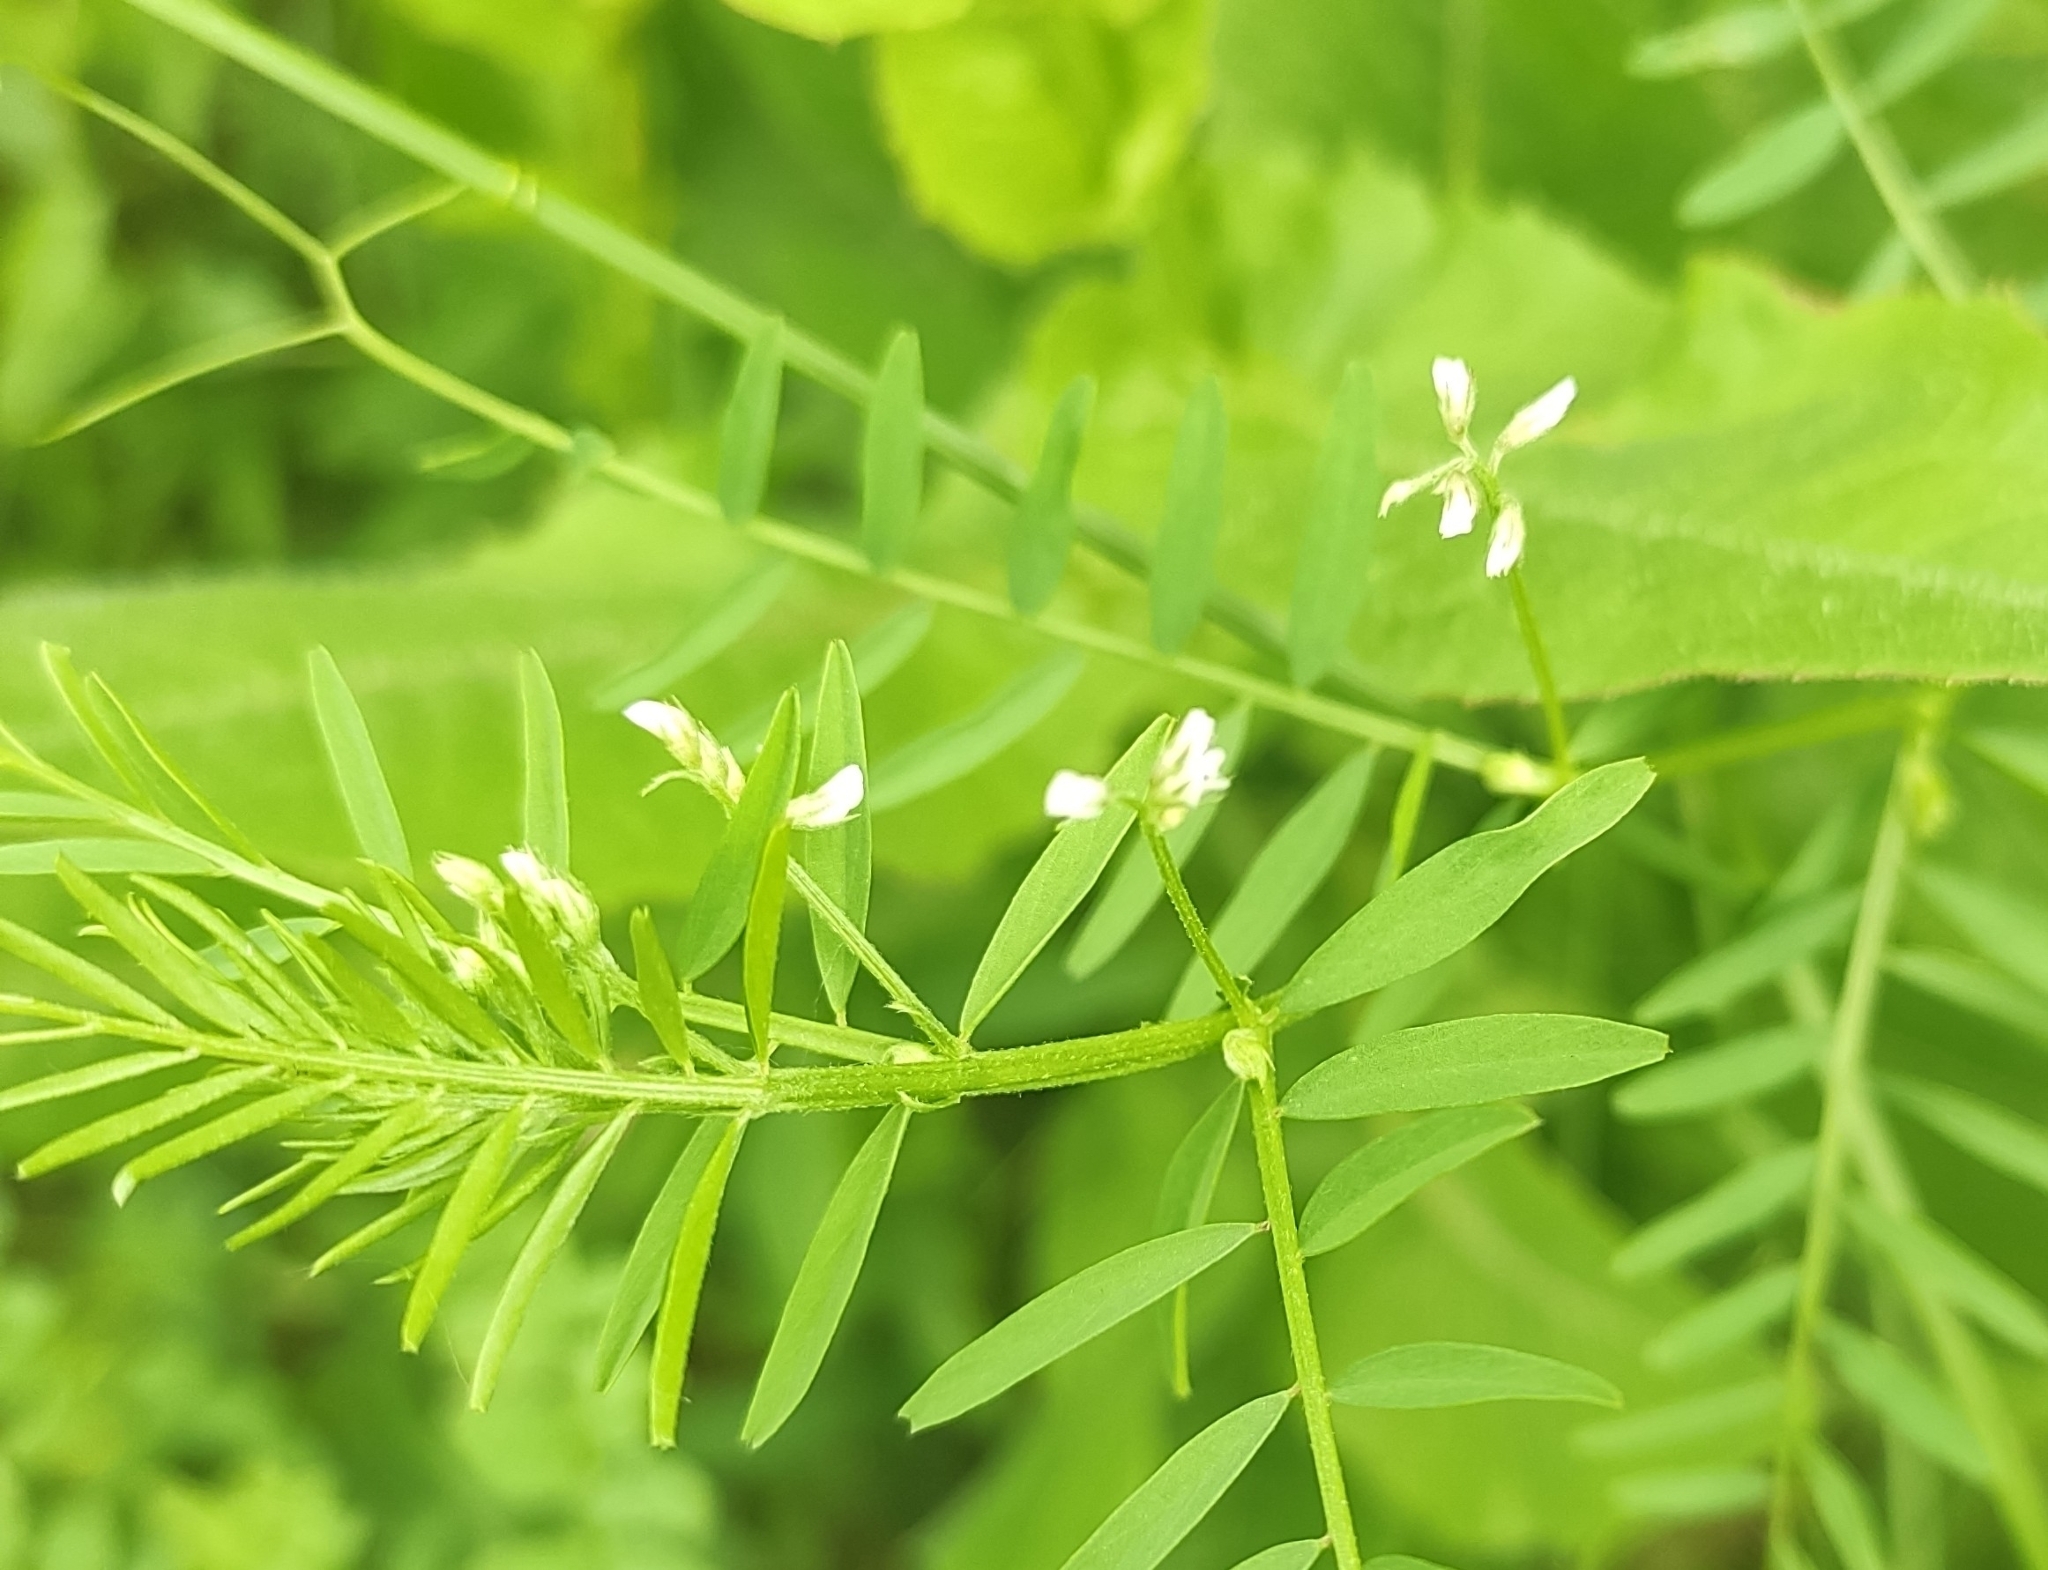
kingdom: Plantae
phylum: Tracheophyta
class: Magnoliopsida
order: Fabales
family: Fabaceae
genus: Vicia
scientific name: Vicia hirsuta
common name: Tiny vetch
